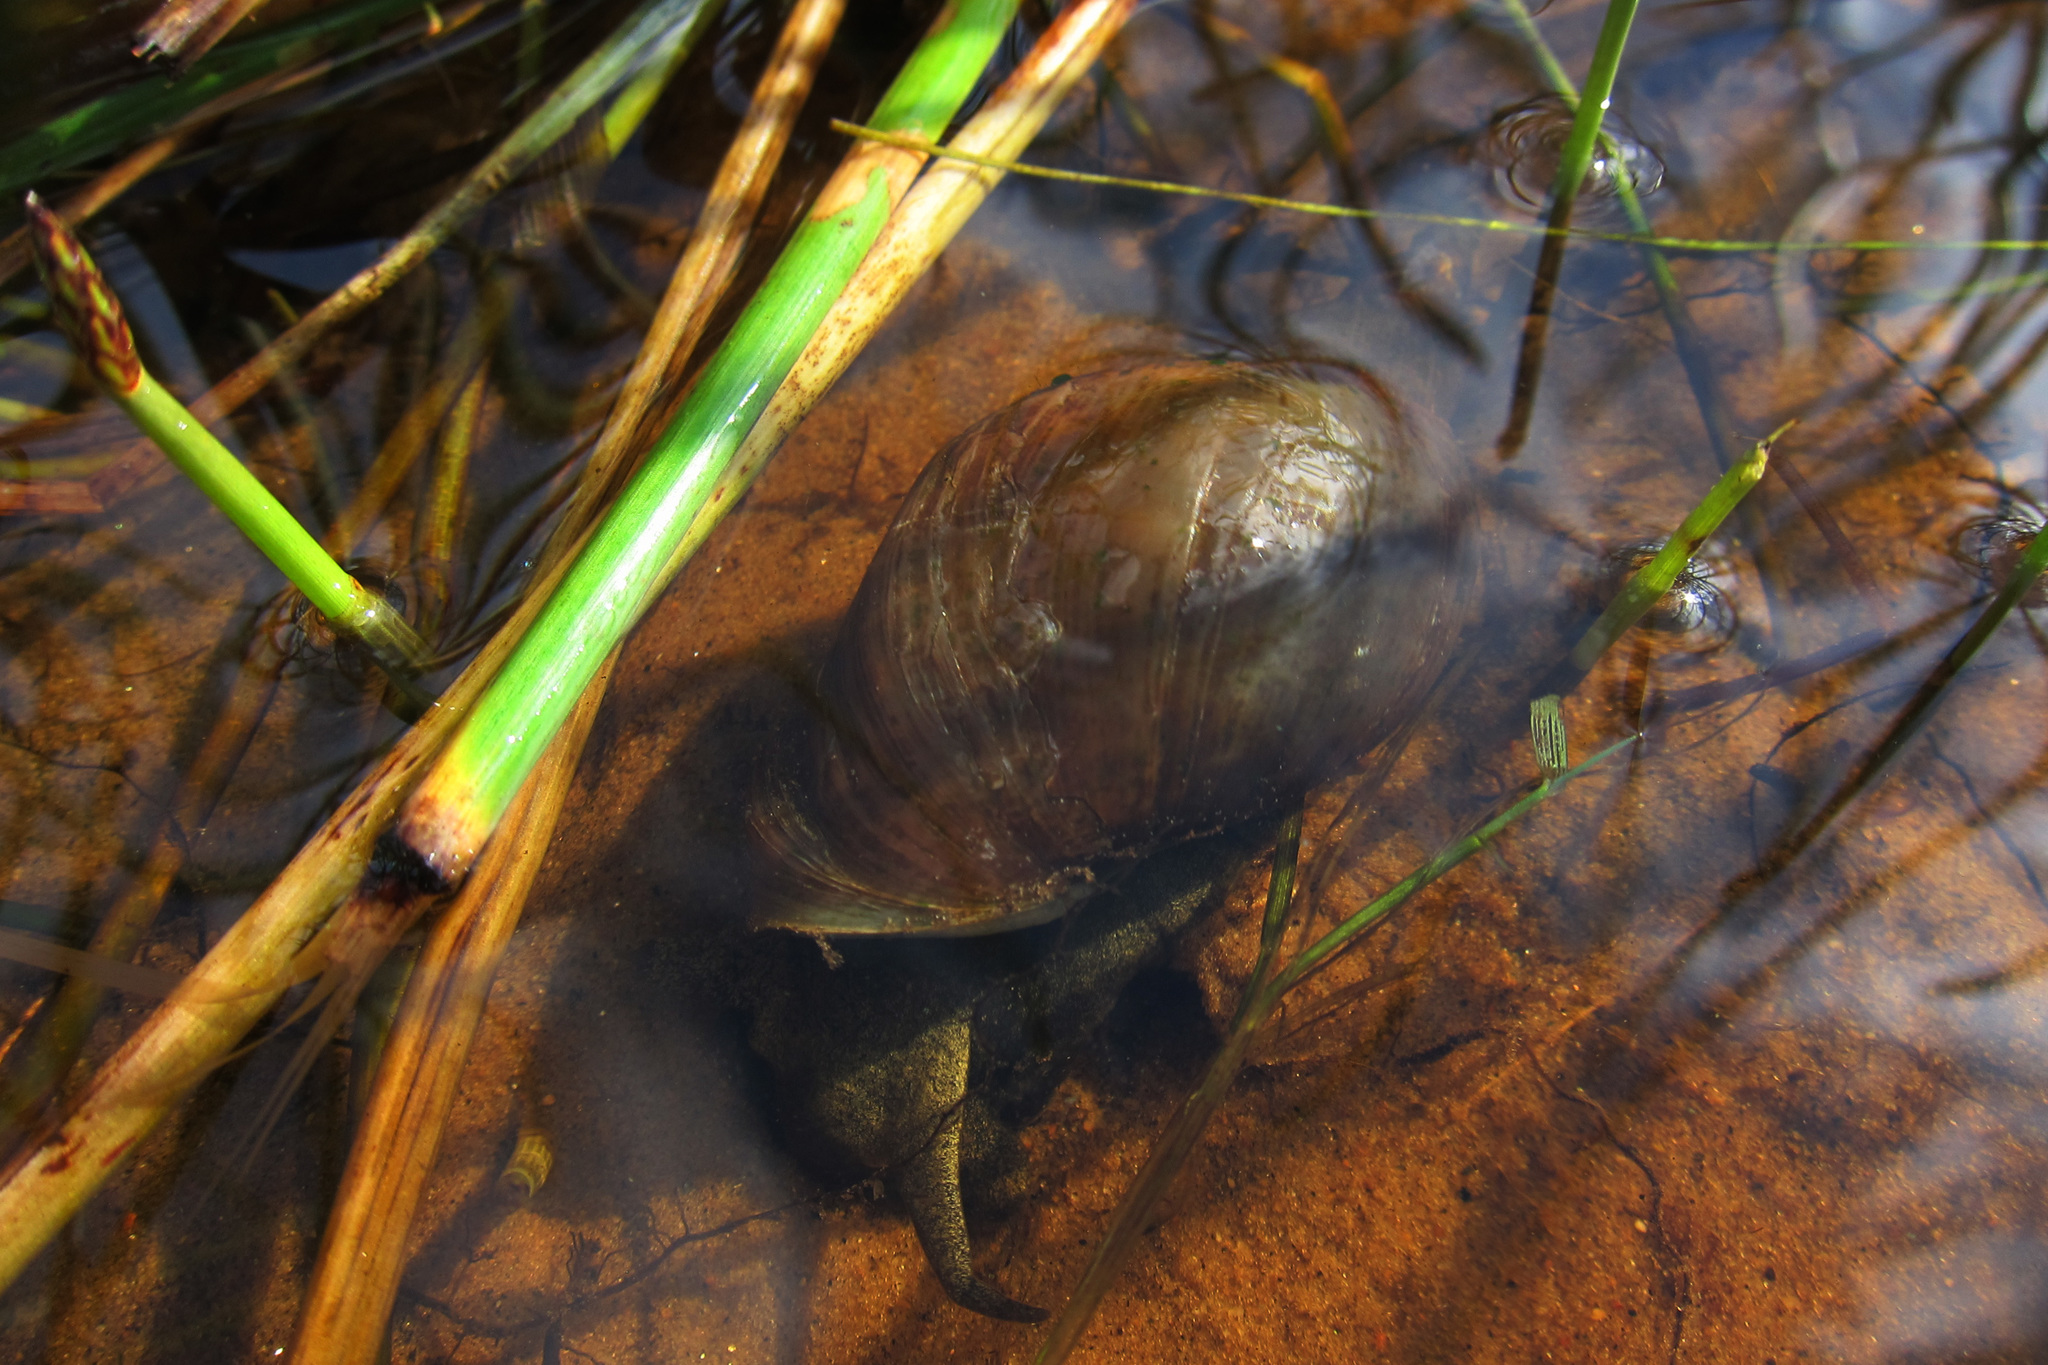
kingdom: Animalia
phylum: Mollusca
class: Gastropoda
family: Lymnaeidae
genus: Lymnaea
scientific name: Lymnaea stagnalis
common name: Great pond snail
